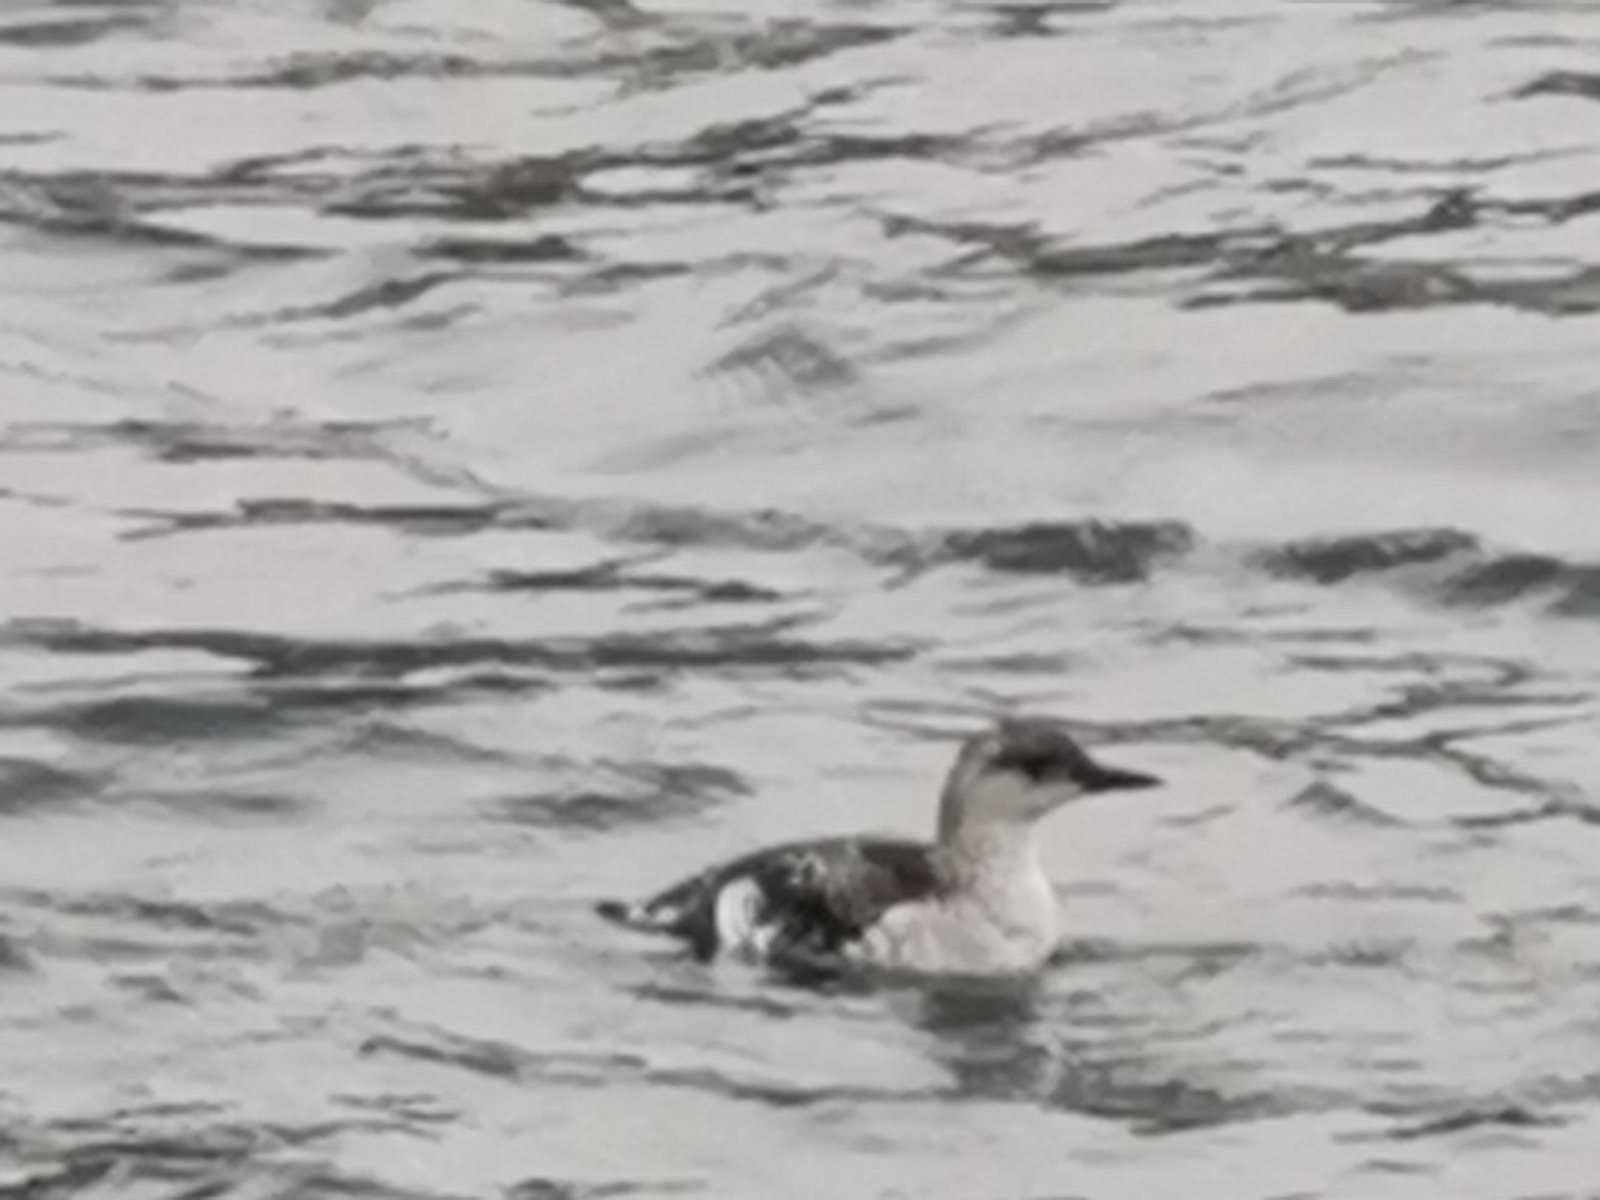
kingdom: Animalia
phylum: Chordata
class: Aves
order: Charadriiformes
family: Alcidae
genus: Cepphus
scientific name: Cepphus grylle
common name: Black guillemot
